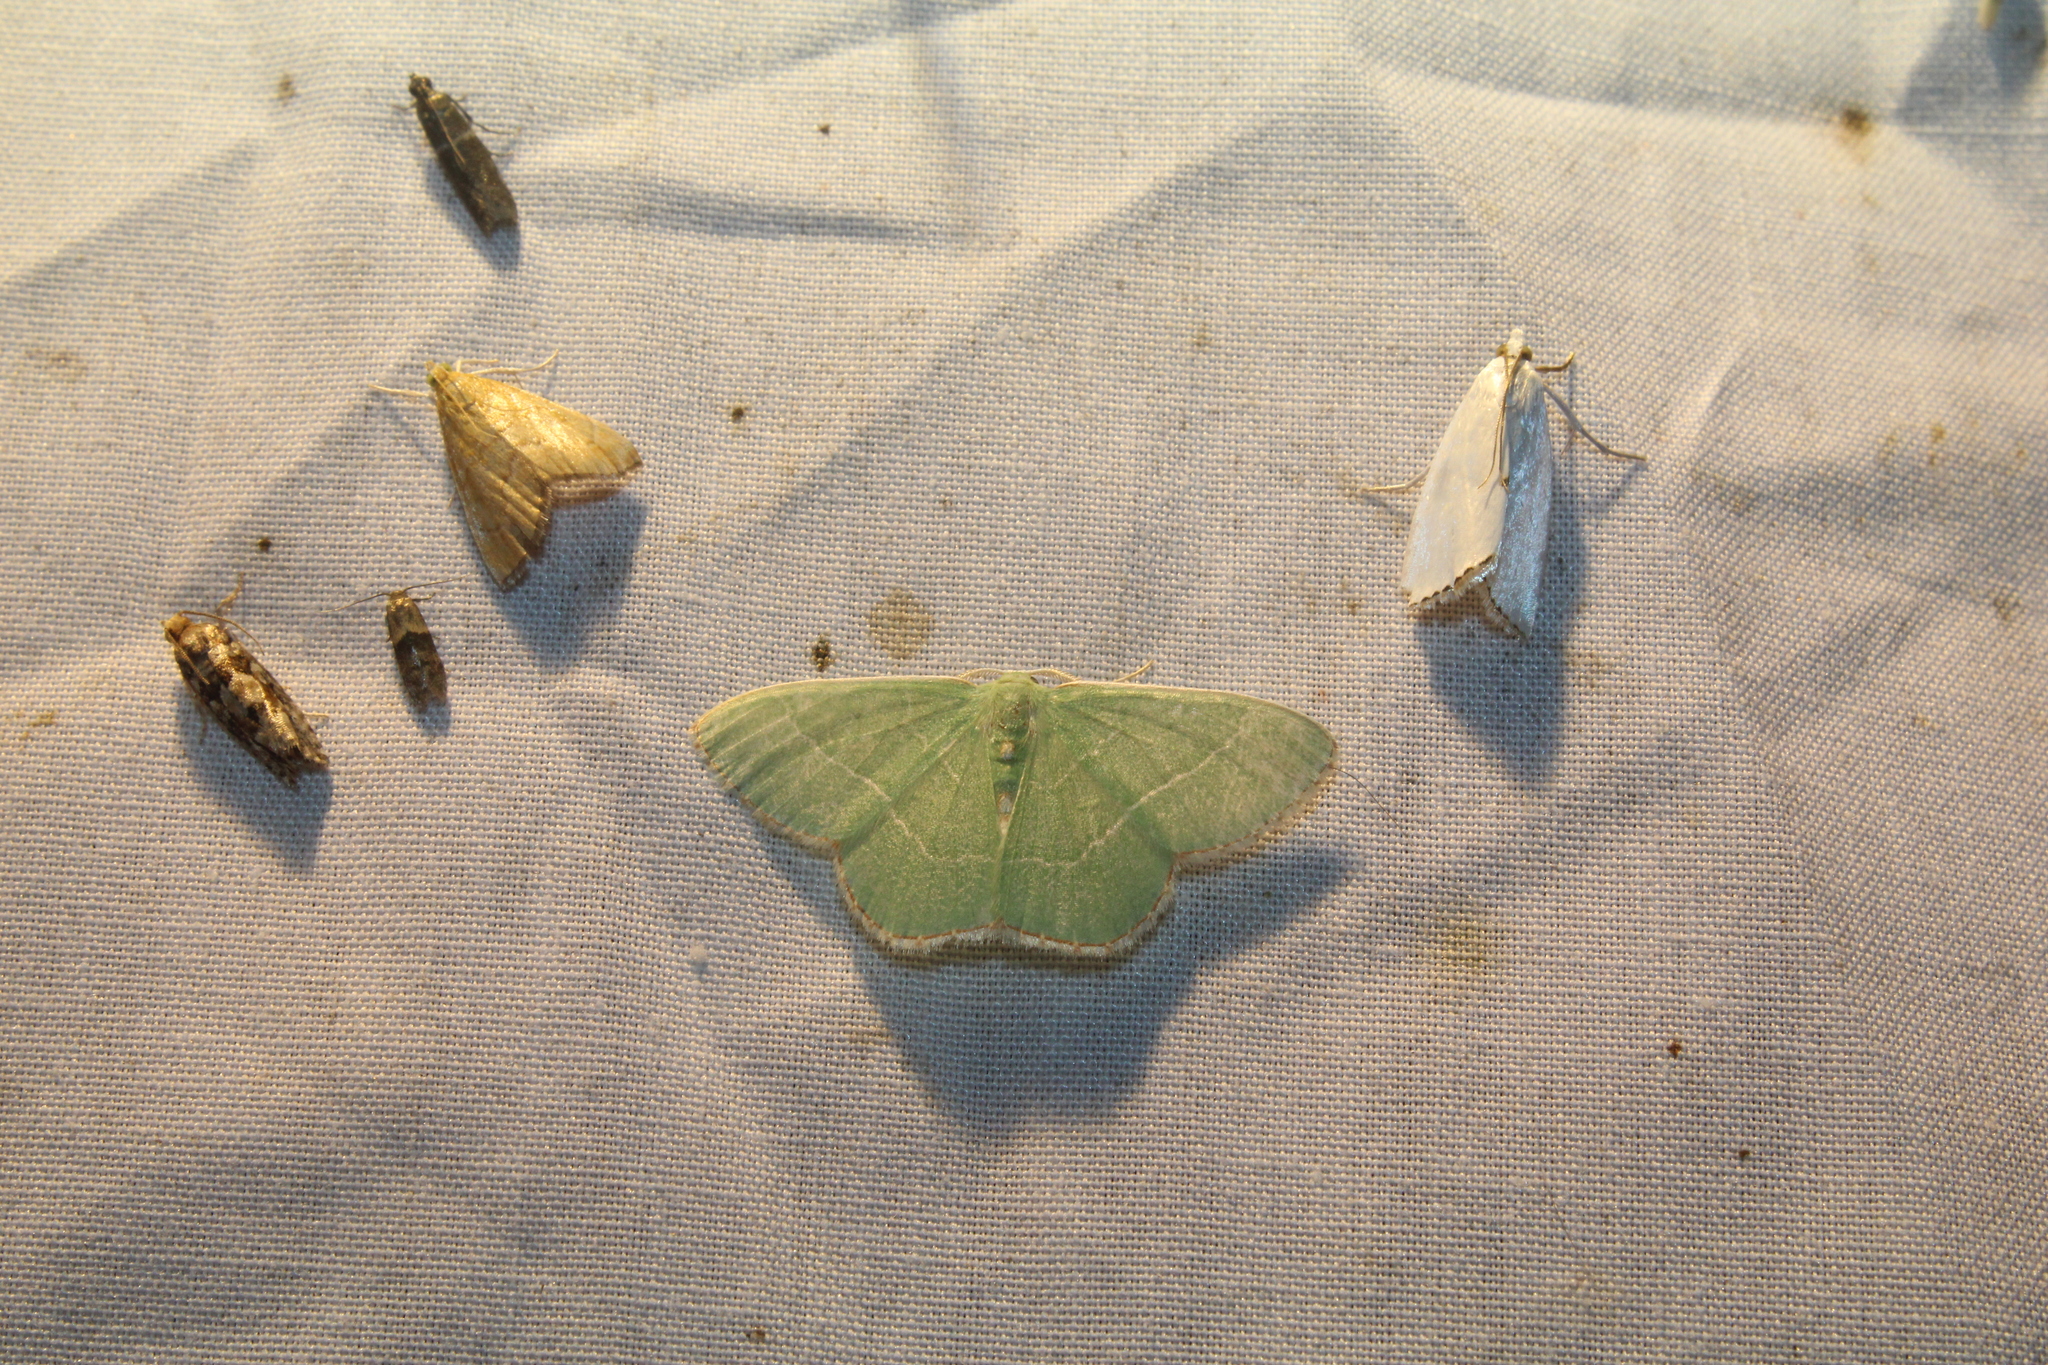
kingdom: Animalia
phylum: Arthropoda
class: Insecta
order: Lepidoptera
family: Geometridae
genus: Nemoria
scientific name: Nemoria bistriaria
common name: Red-fringed emerald
